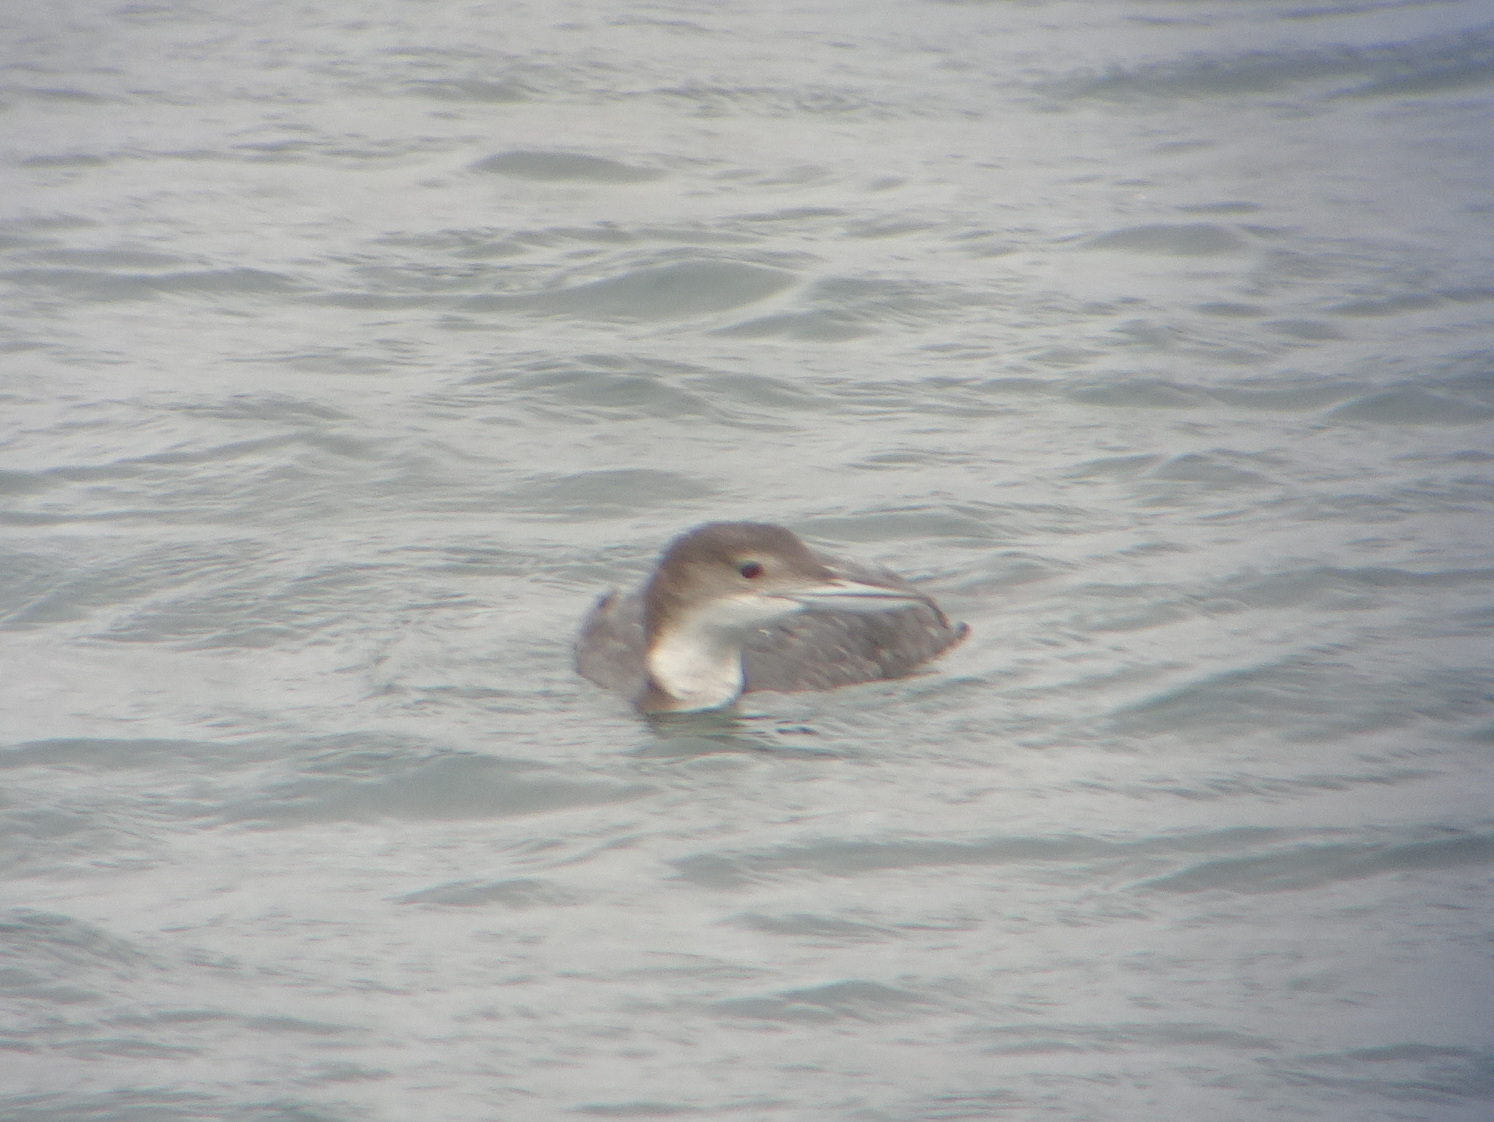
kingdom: Animalia
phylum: Chordata
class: Aves
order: Gaviiformes
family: Gaviidae
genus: Gavia
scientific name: Gavia immer
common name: Common loon
